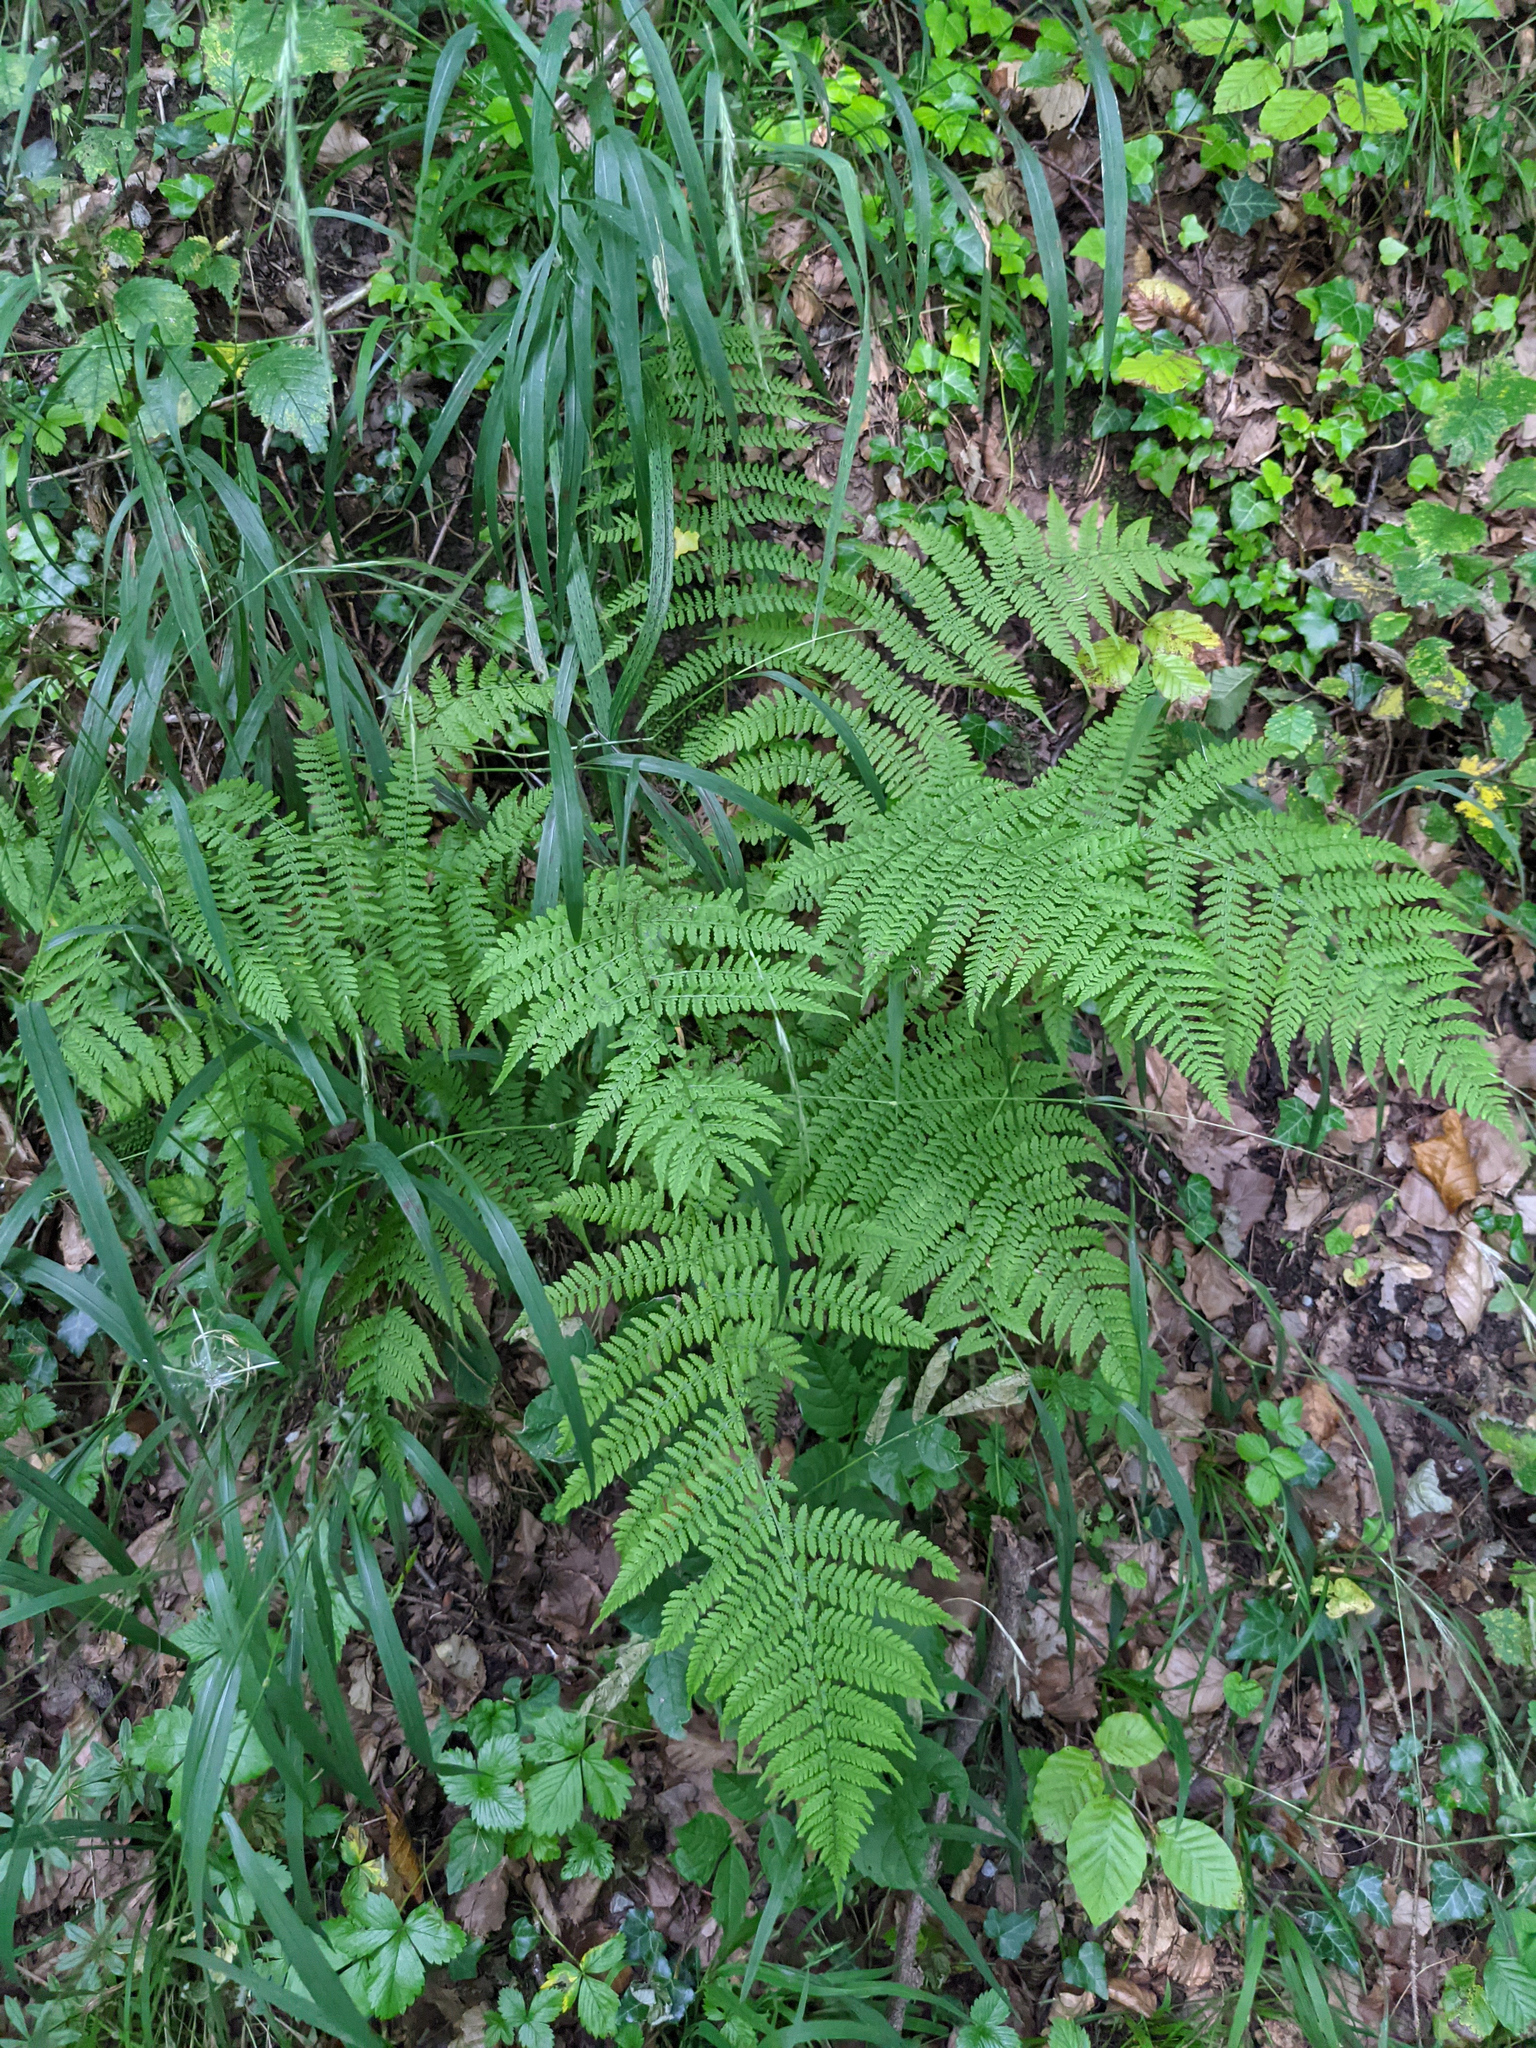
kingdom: Plantae
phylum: Tracheophyta
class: Polypodiopsida
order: Polypodiales
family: Athyriaceae
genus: Athyrium
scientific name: Athyrium filix-femina
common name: Lady fern
